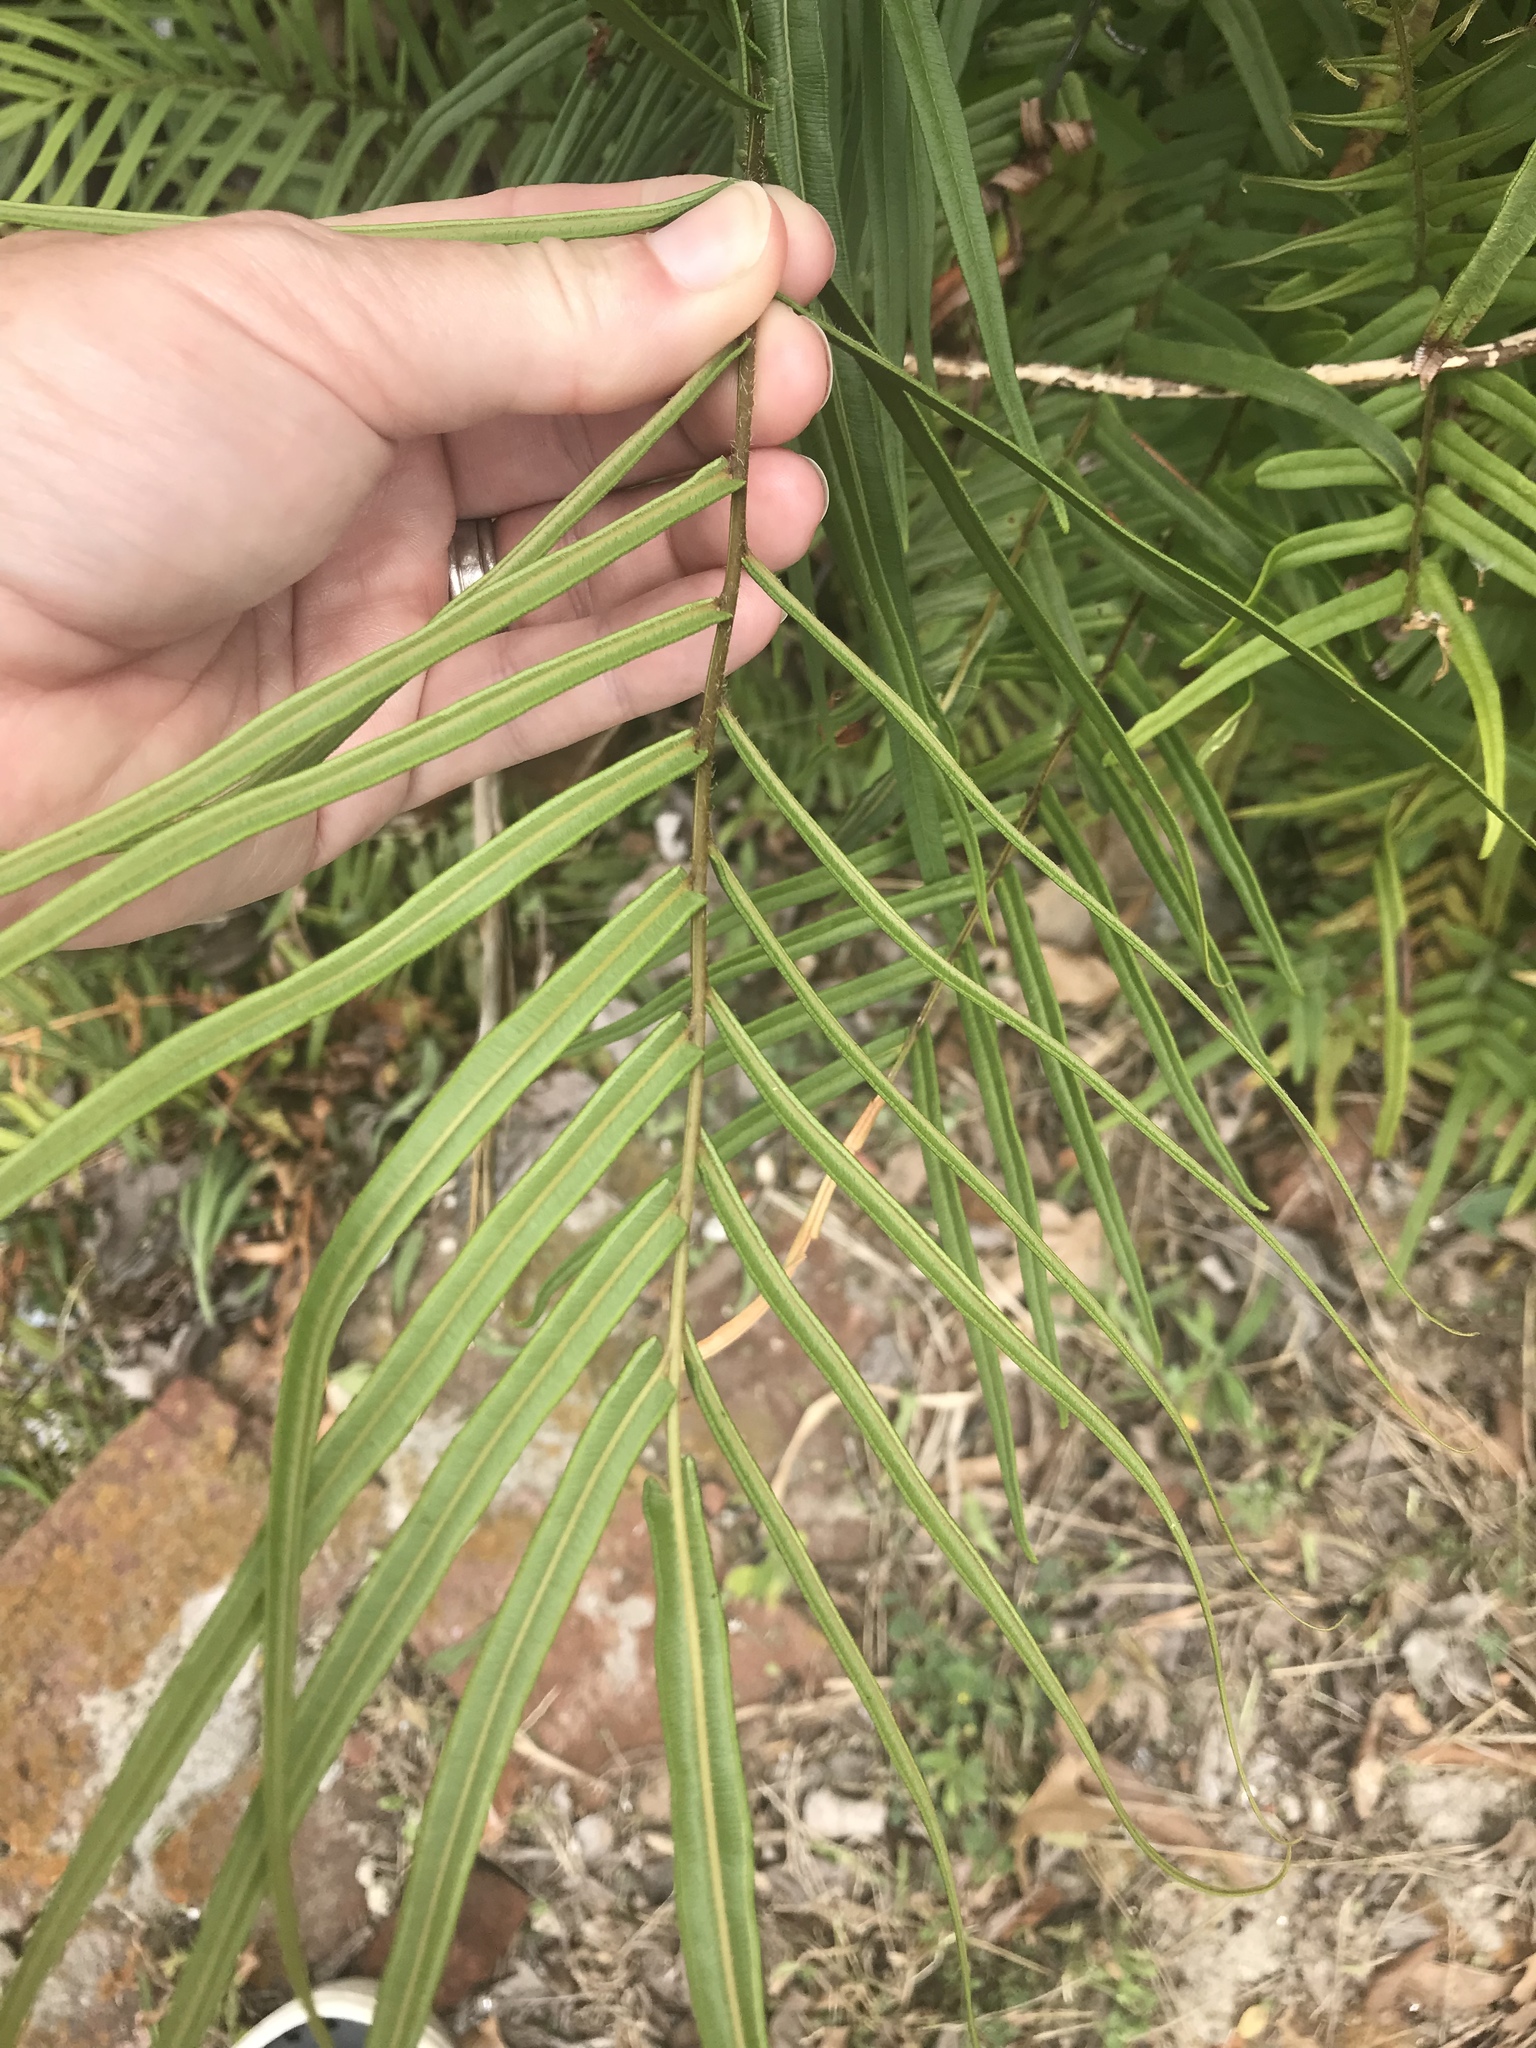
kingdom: Plantae
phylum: Tracheophyta
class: Polypodiopsida
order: Polypodiales
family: Pteridaceae
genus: Pteris
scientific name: Pteris vittata
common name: Ladder brake
